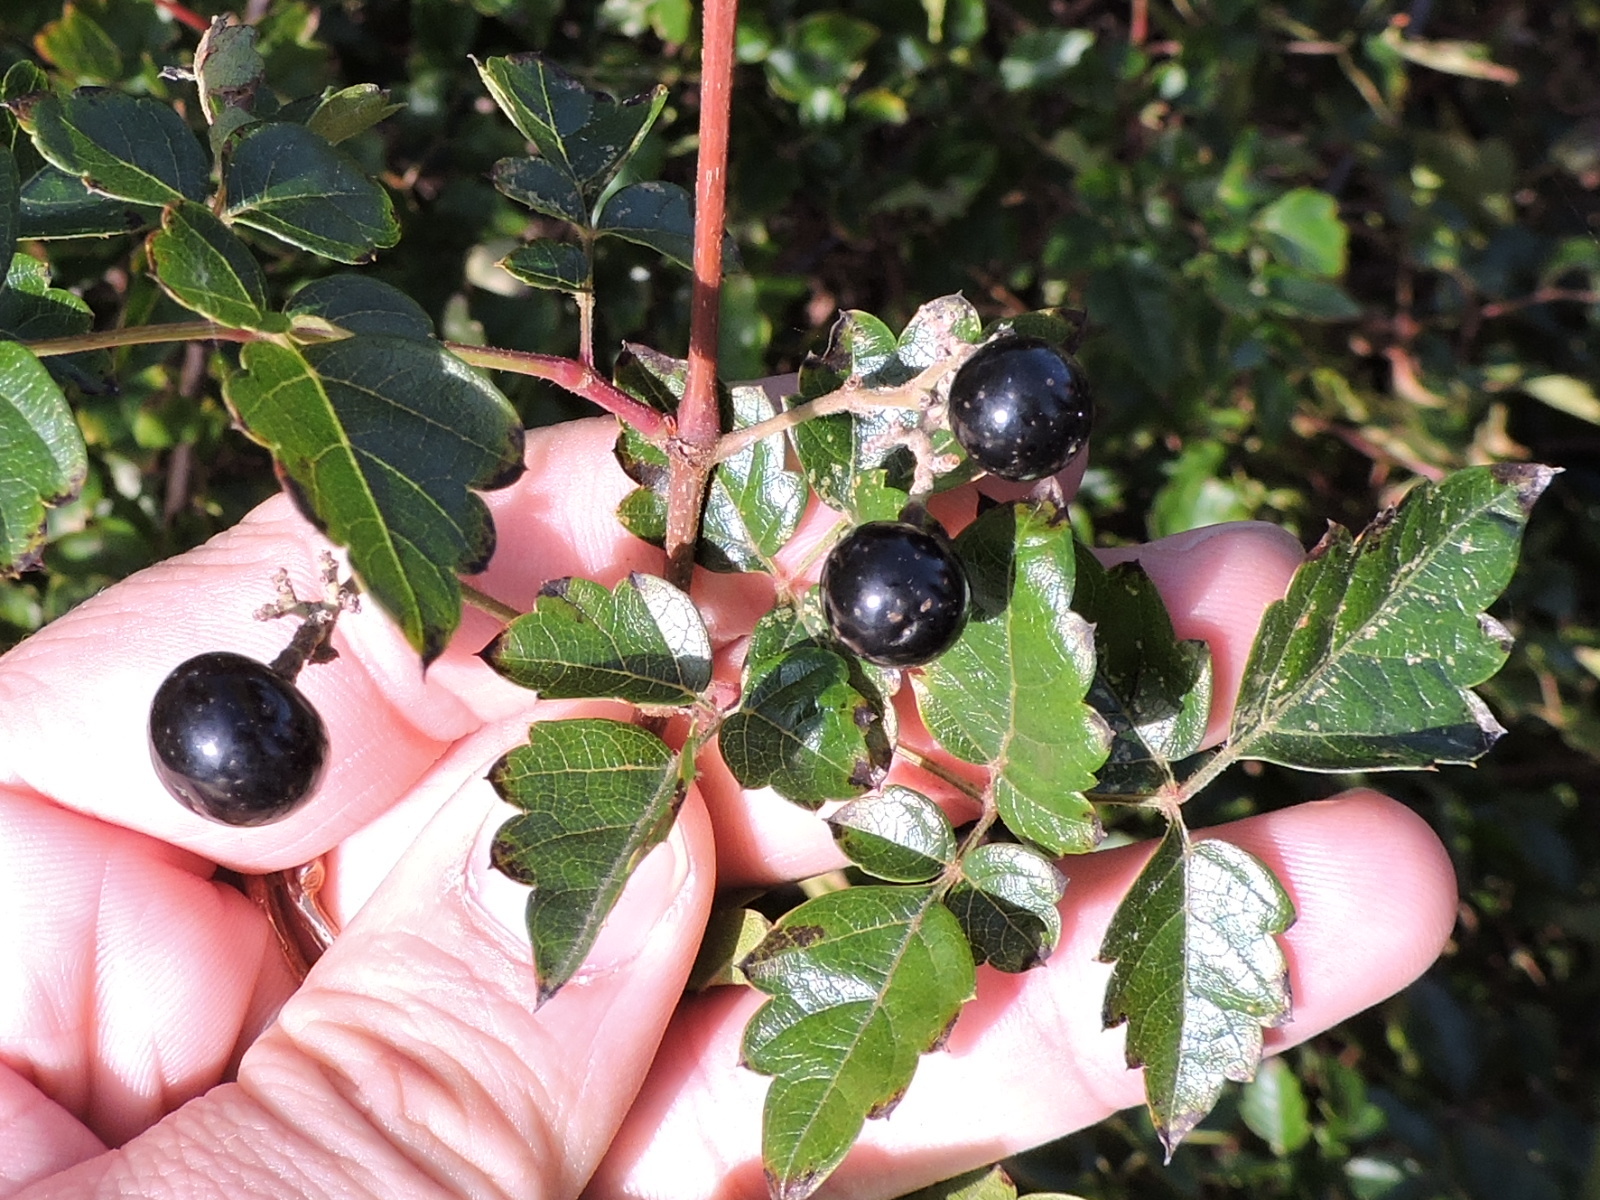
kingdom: Plantae
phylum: Tracheophyta
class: Magnoliopsida
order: Vitales
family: Vitaceae
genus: Nekemias
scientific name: Nekemias arborea
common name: Peppervine
